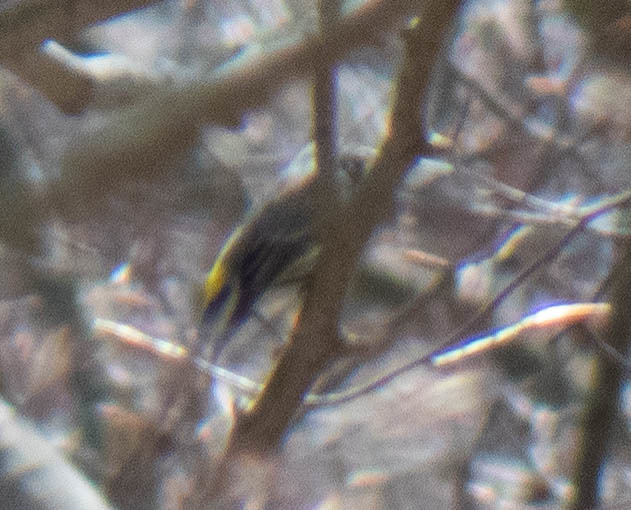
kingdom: Animalia
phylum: Chordata
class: Aves
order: Passeriformes
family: Parulidae
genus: Setophaga
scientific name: Setophaga coronata
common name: Myrtle warbler
